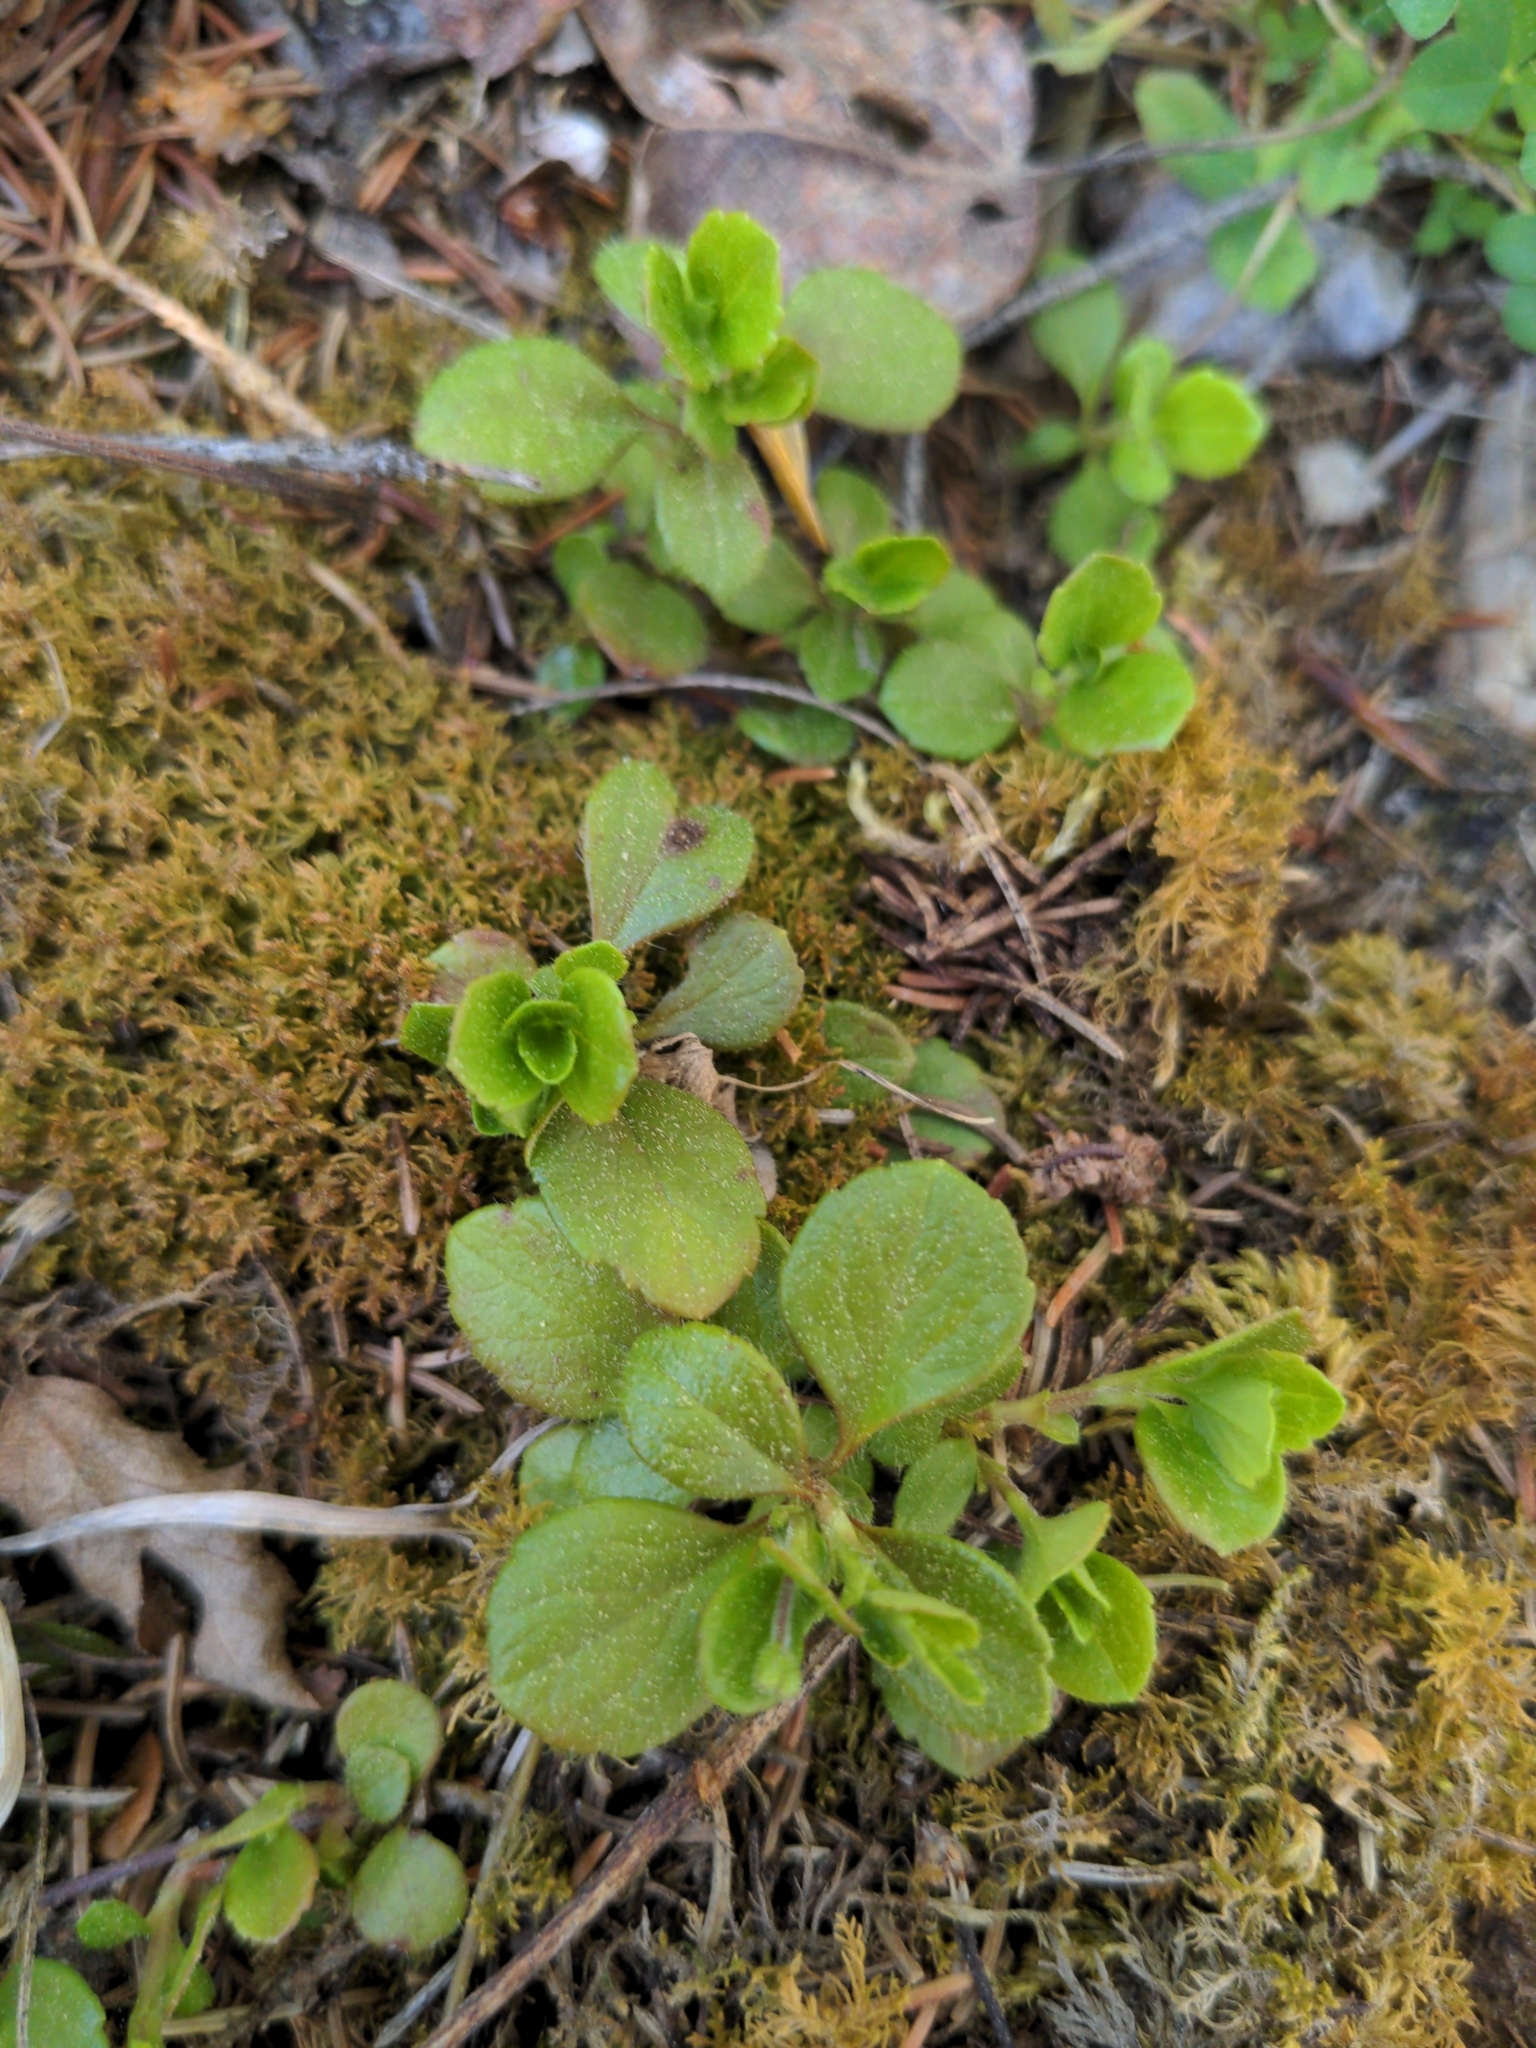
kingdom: Plantae
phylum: Tracheophyta
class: Magnoliopsida
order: Dipsacales
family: Caprifoliaceae
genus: Linnaea
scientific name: Linnaea borealis
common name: Twinflower
